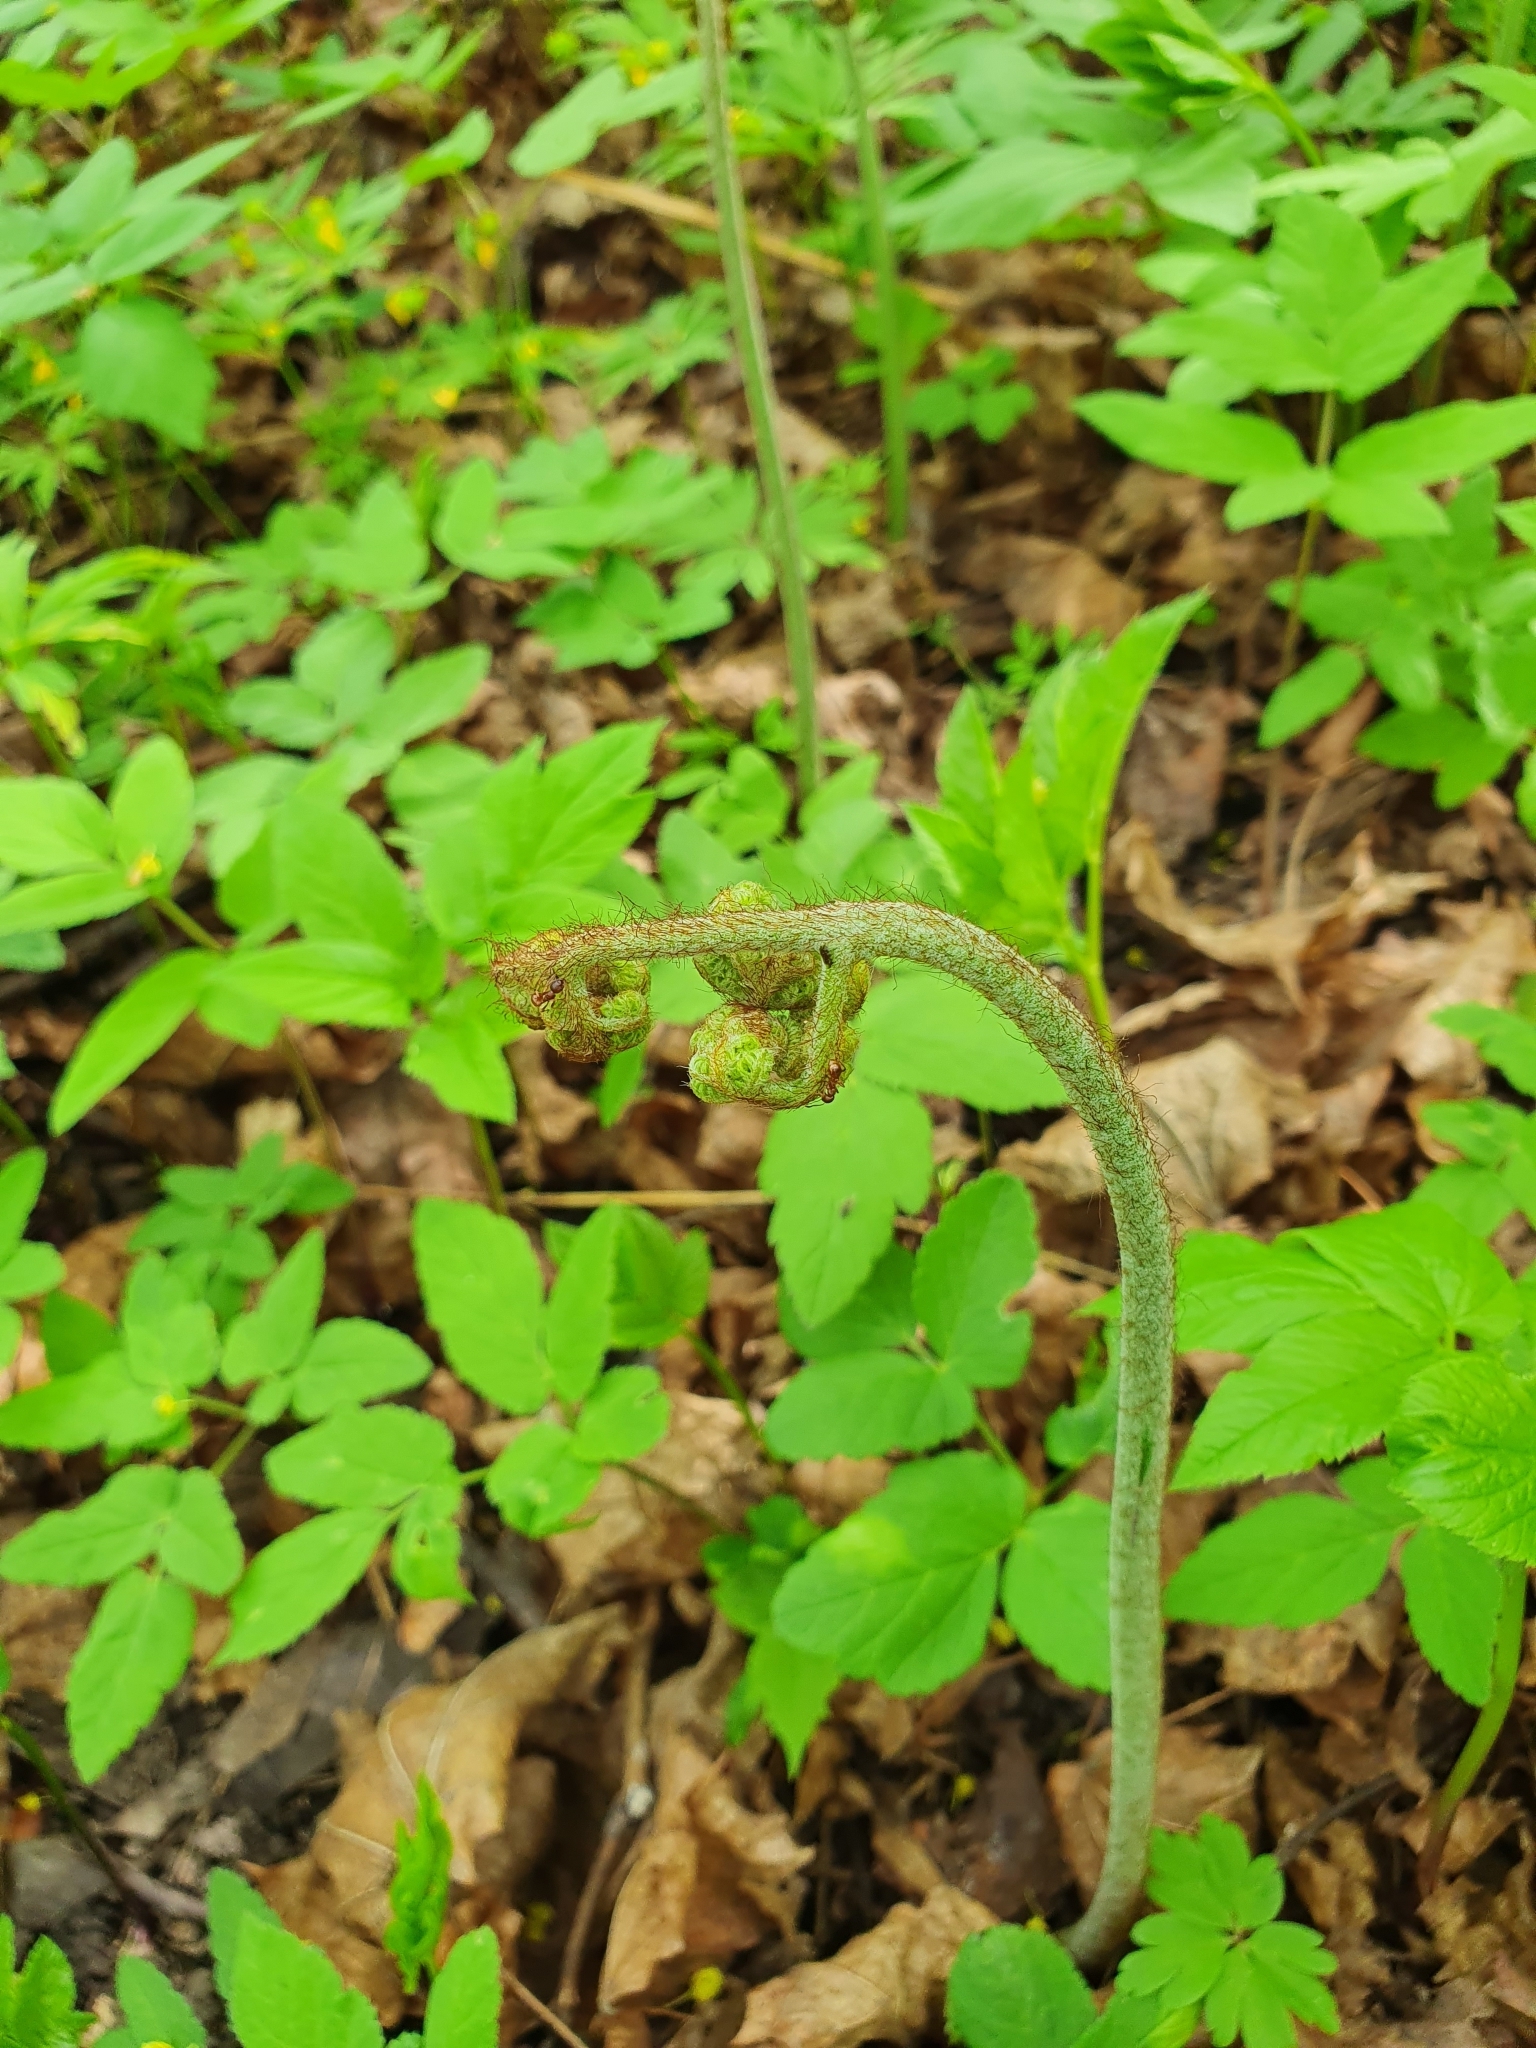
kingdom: Plantae
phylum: Tracheophyta
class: Polypodiopsida
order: Polypodiales
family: Dennstaedtiaceae
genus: Pteridium
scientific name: Pteridium aquilinum
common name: Bracken
